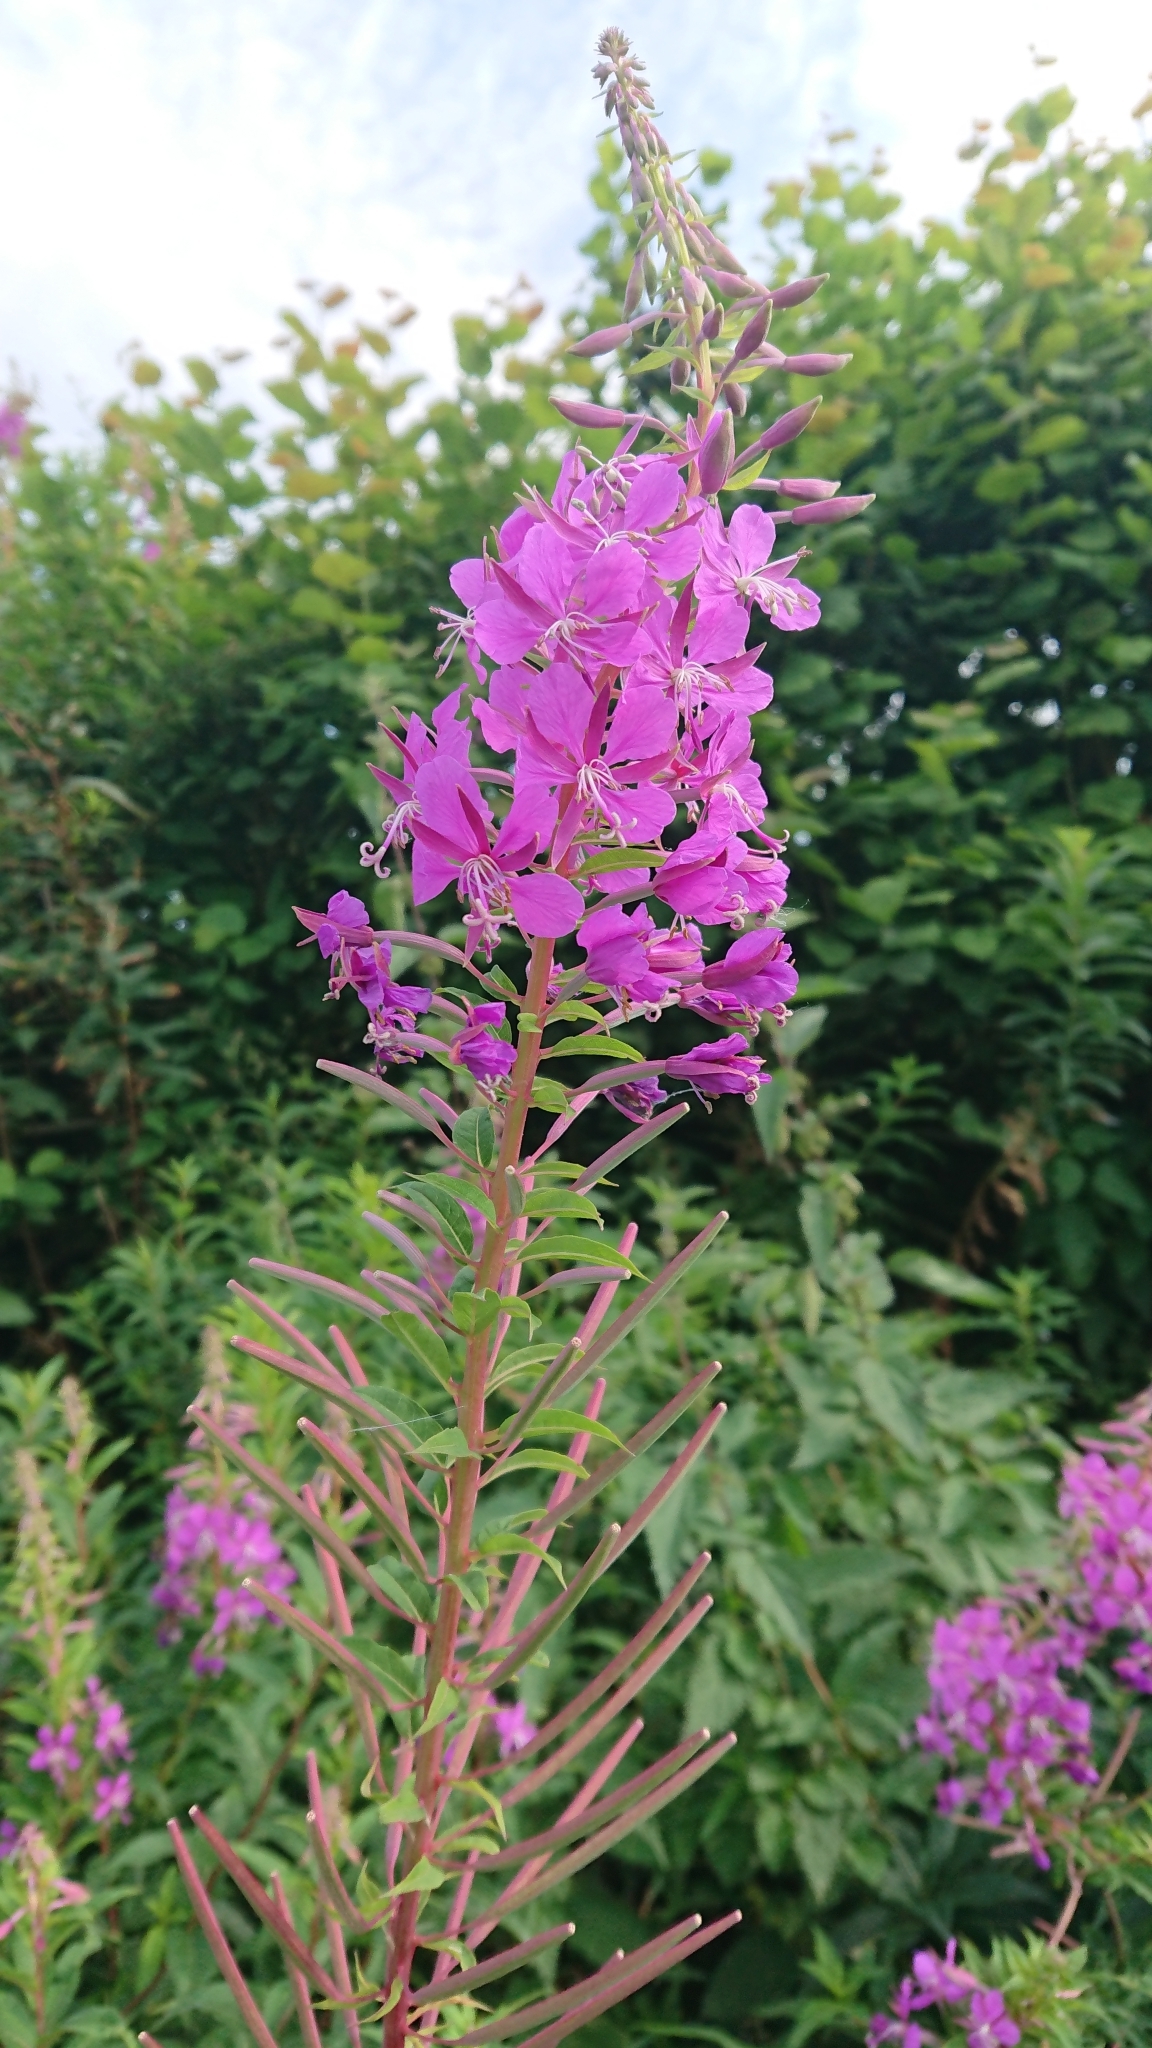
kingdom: Plantae
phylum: Tracheophyta
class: Magnoliopsida
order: Myrtales
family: Onagraceae
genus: Chamaenerion
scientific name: Chamaenerion angustifolium
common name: Fireweed
